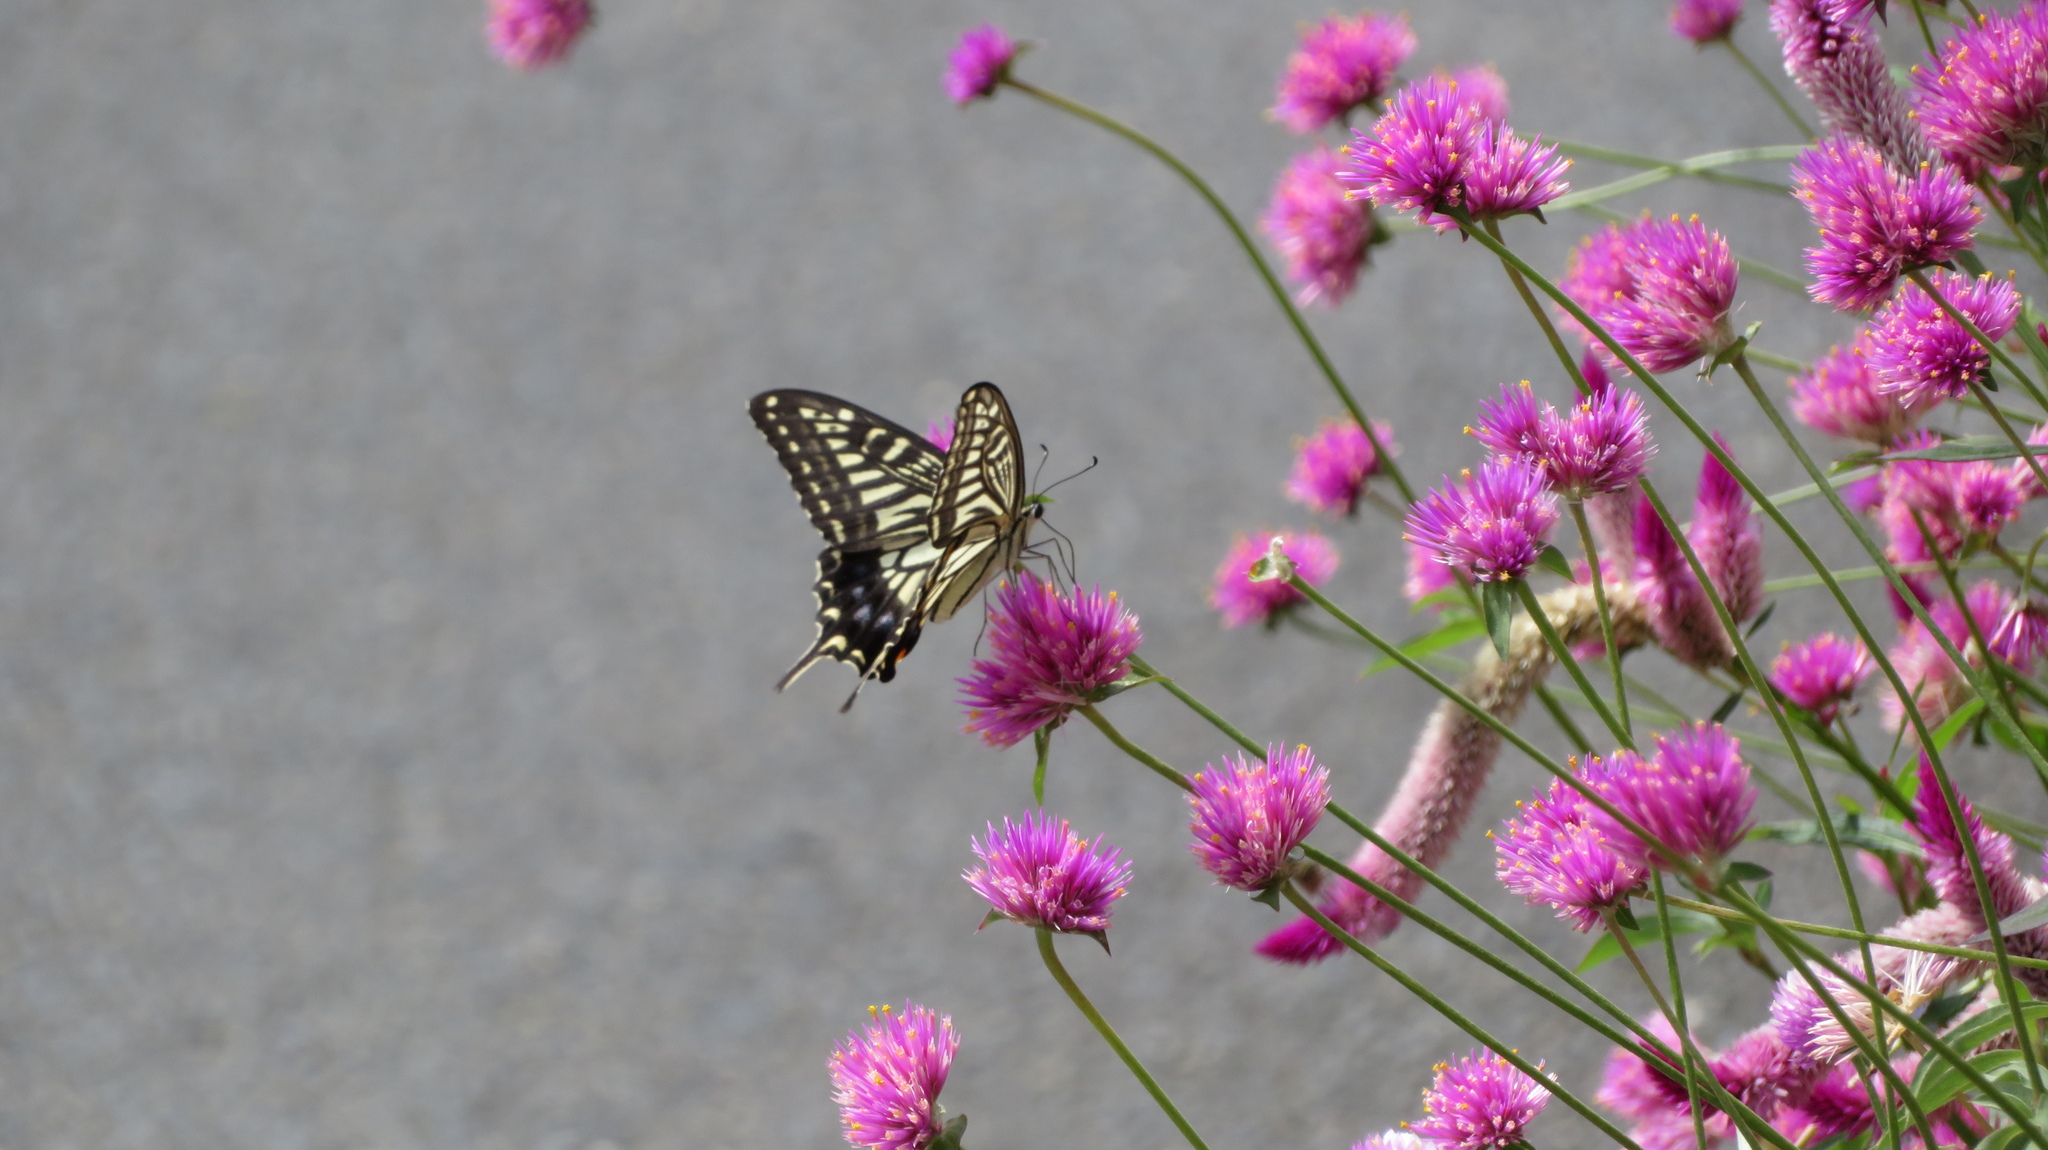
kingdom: Animalia
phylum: Arthropoda
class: Insecta
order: Lepidoptera
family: Papilionidae
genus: Papilio
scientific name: Papilio xuthus
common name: Asian swallowtail
